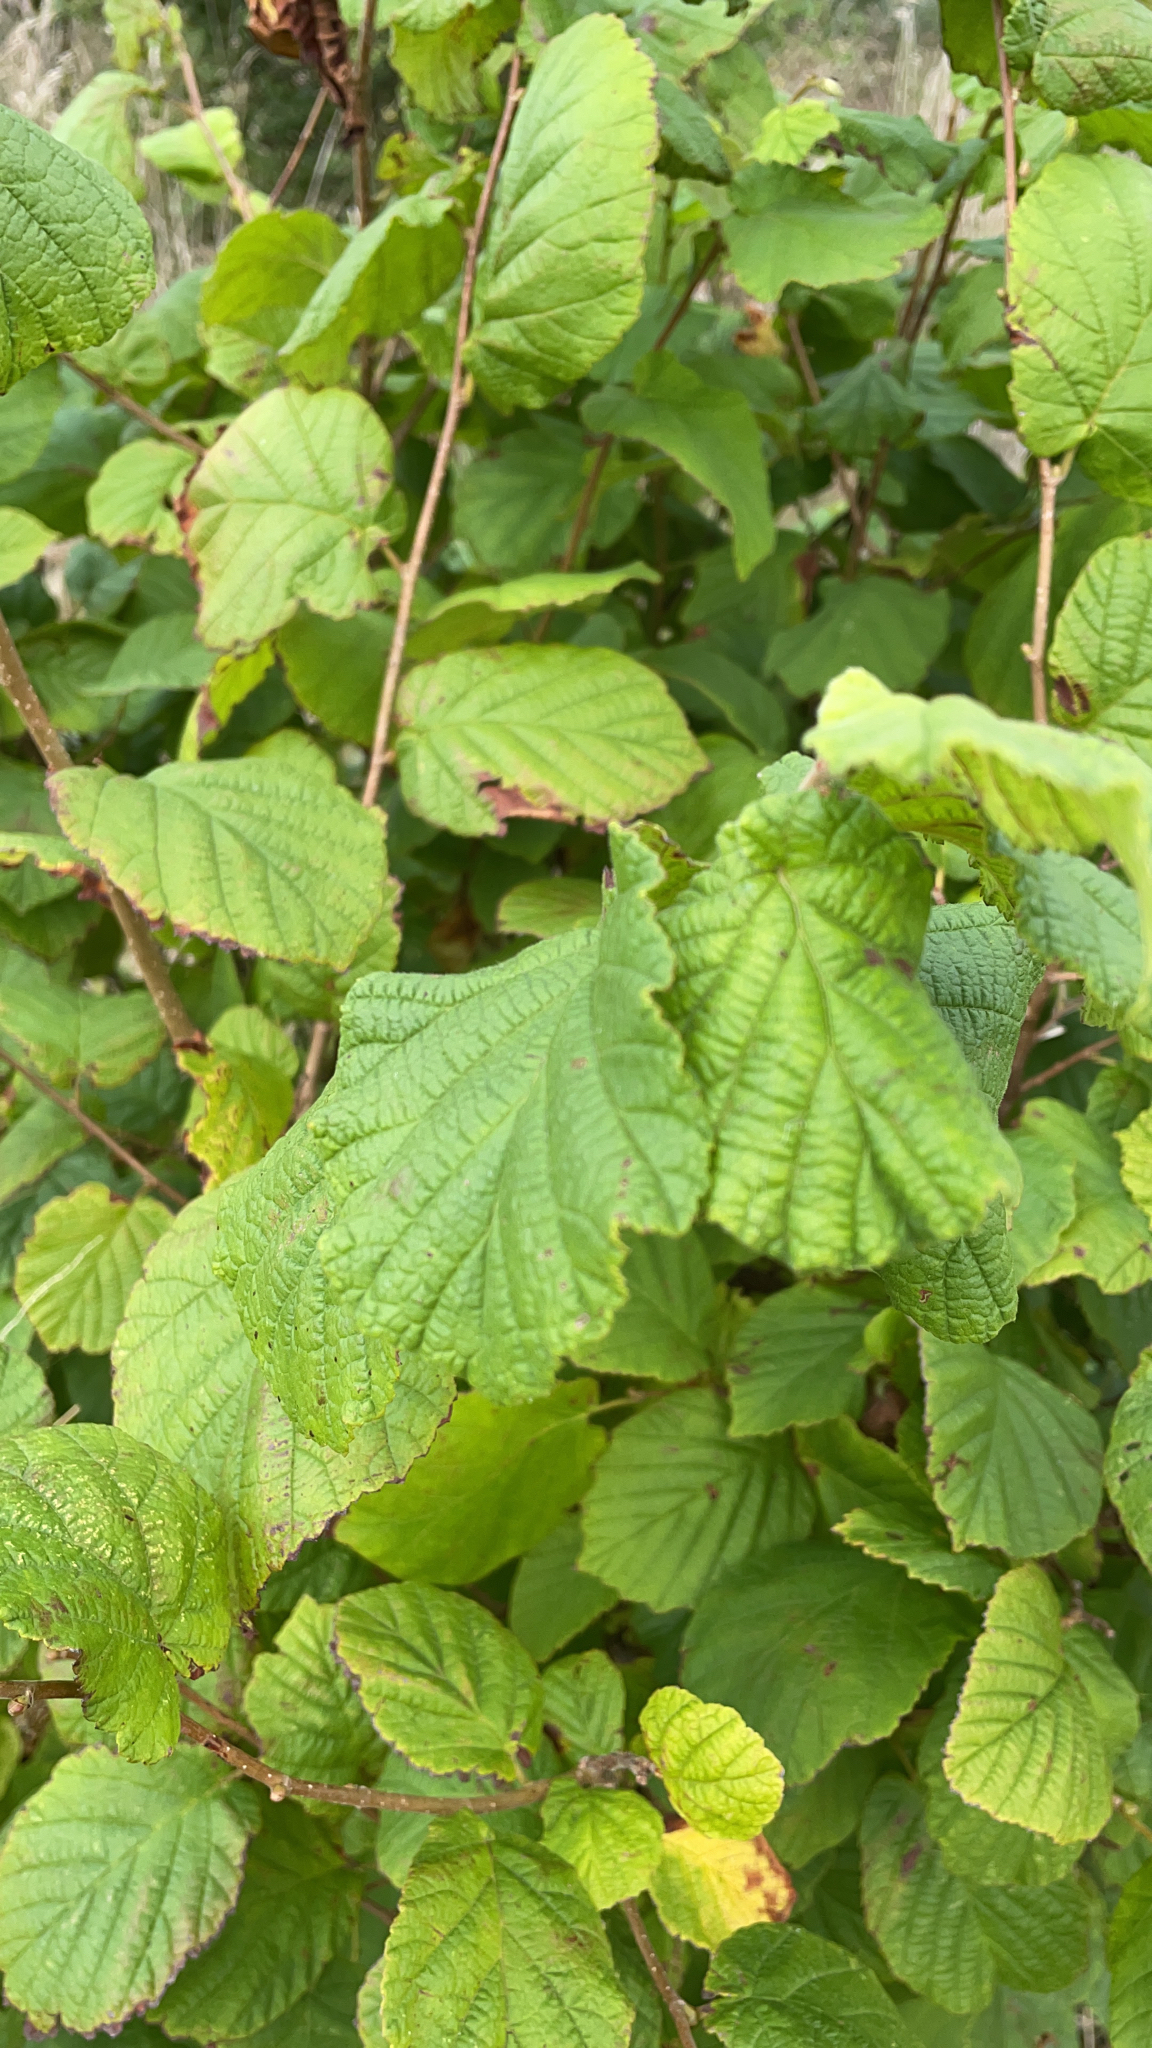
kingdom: Plantae
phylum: Tracheophyta
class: Magnoliopsida
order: Fagales
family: Betulaceae
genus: Corylus
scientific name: Corylus avellana
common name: European hazel
